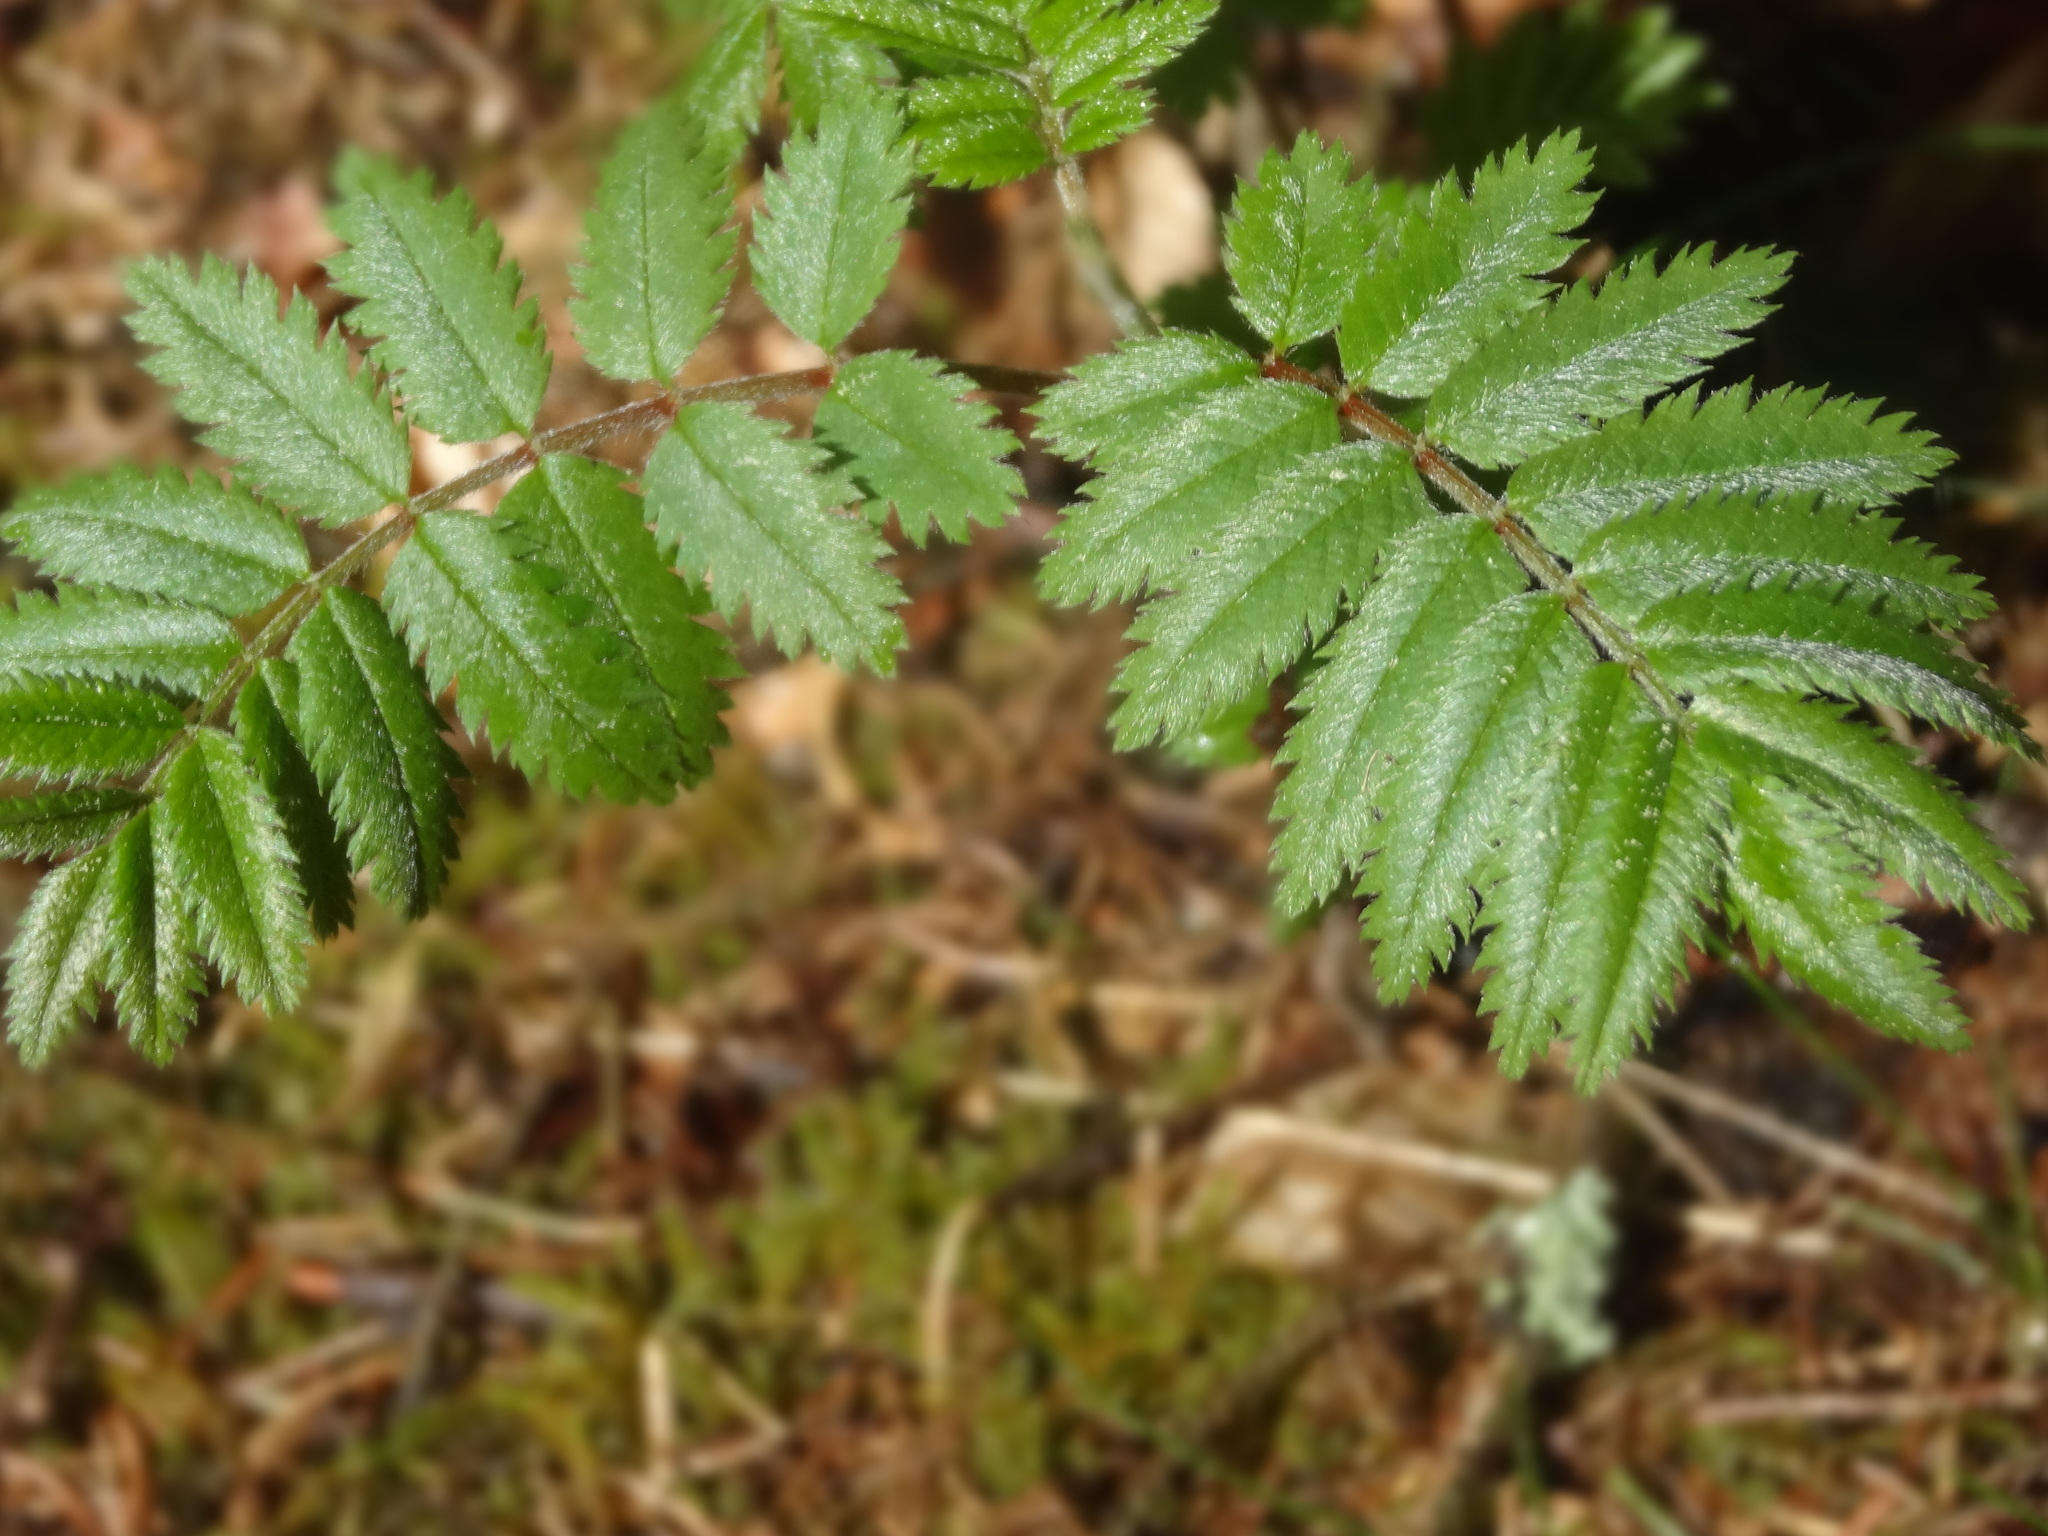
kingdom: Plantae
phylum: Tracheophyta
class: Magnoliopsida
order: Rosales
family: Rosaceae
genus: Sorbus
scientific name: Sorbus aucuparia
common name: Rowan
